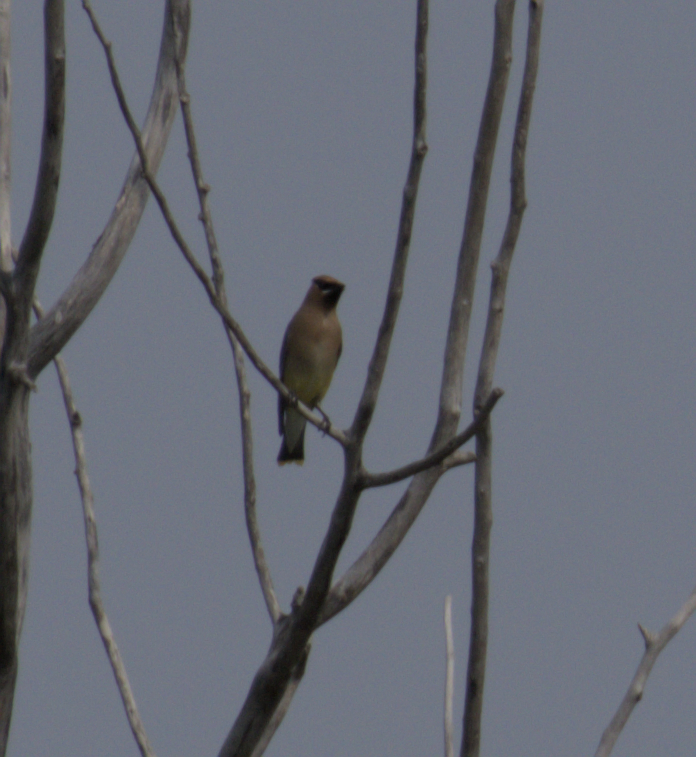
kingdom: Animalia
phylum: Chordata
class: Aves
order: Passeriformes
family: Bombycillidae
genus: Bombycilla
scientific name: Bombycilla cedrorum
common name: Cedar waxwing
